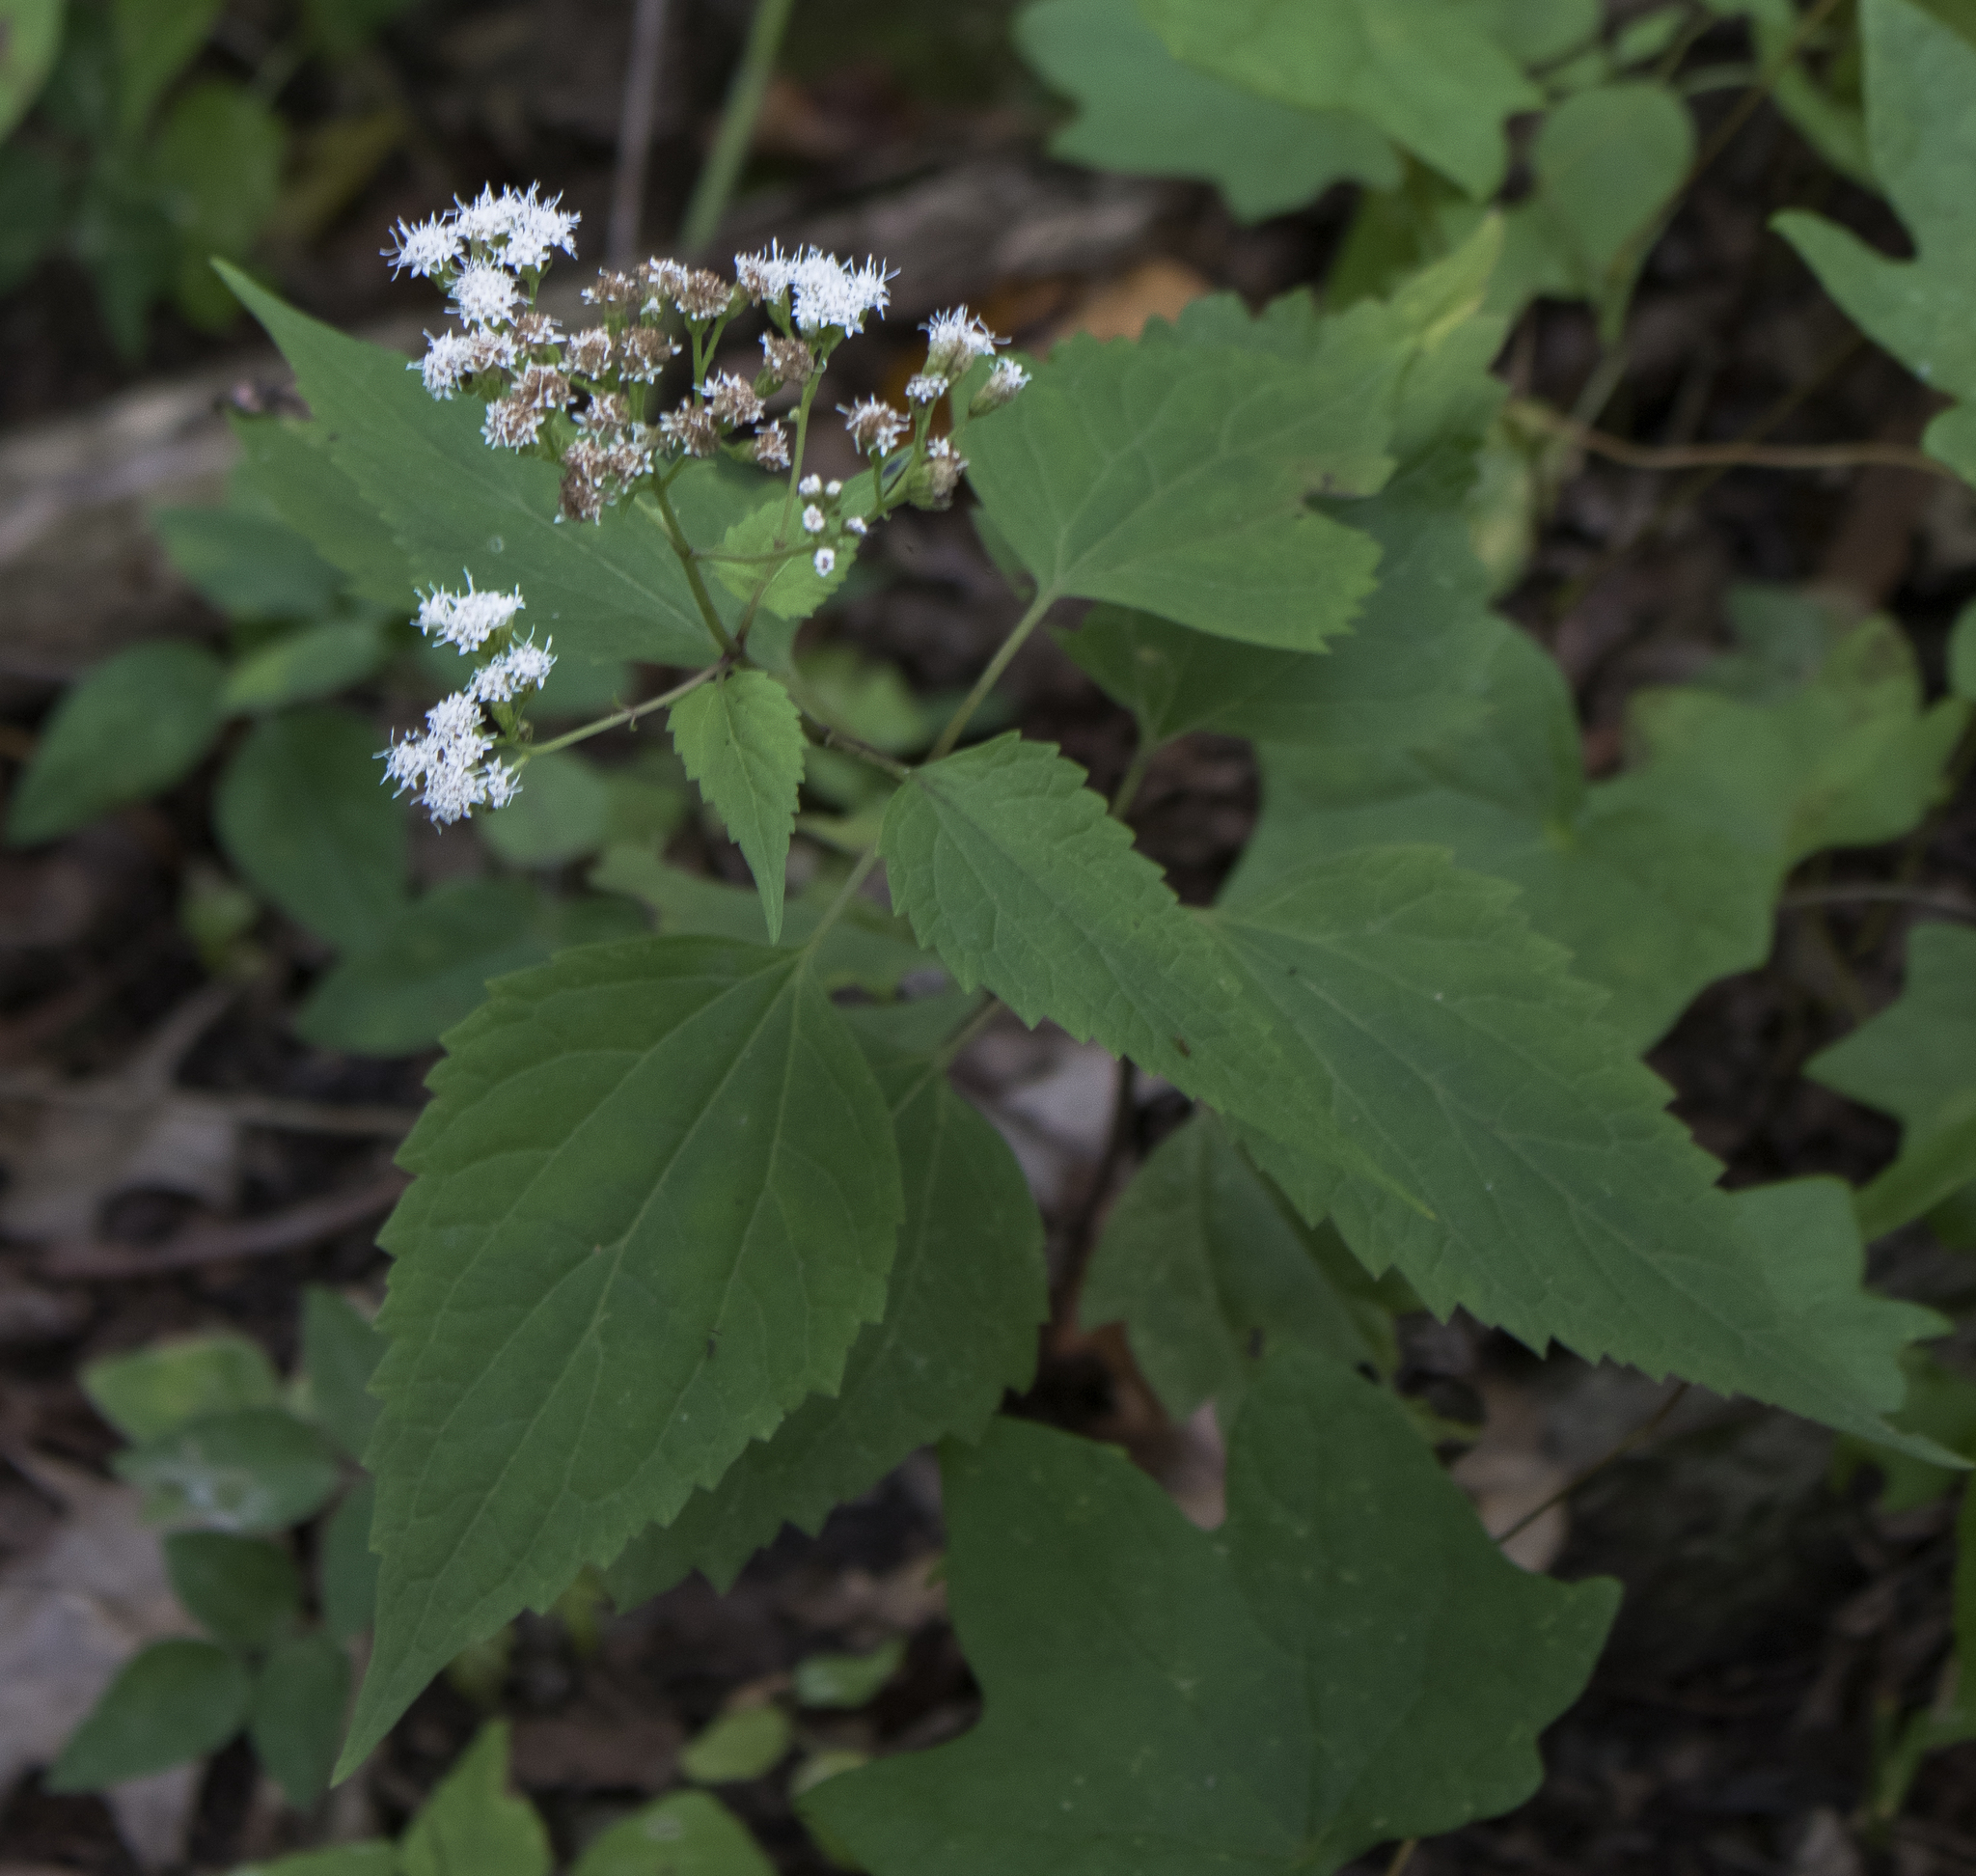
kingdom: Plantae
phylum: Tracheophyta
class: Magnoliopsida
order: Asterales
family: Asteraceae
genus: Ageratina
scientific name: Ageratina altissima
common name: White snakeroot
